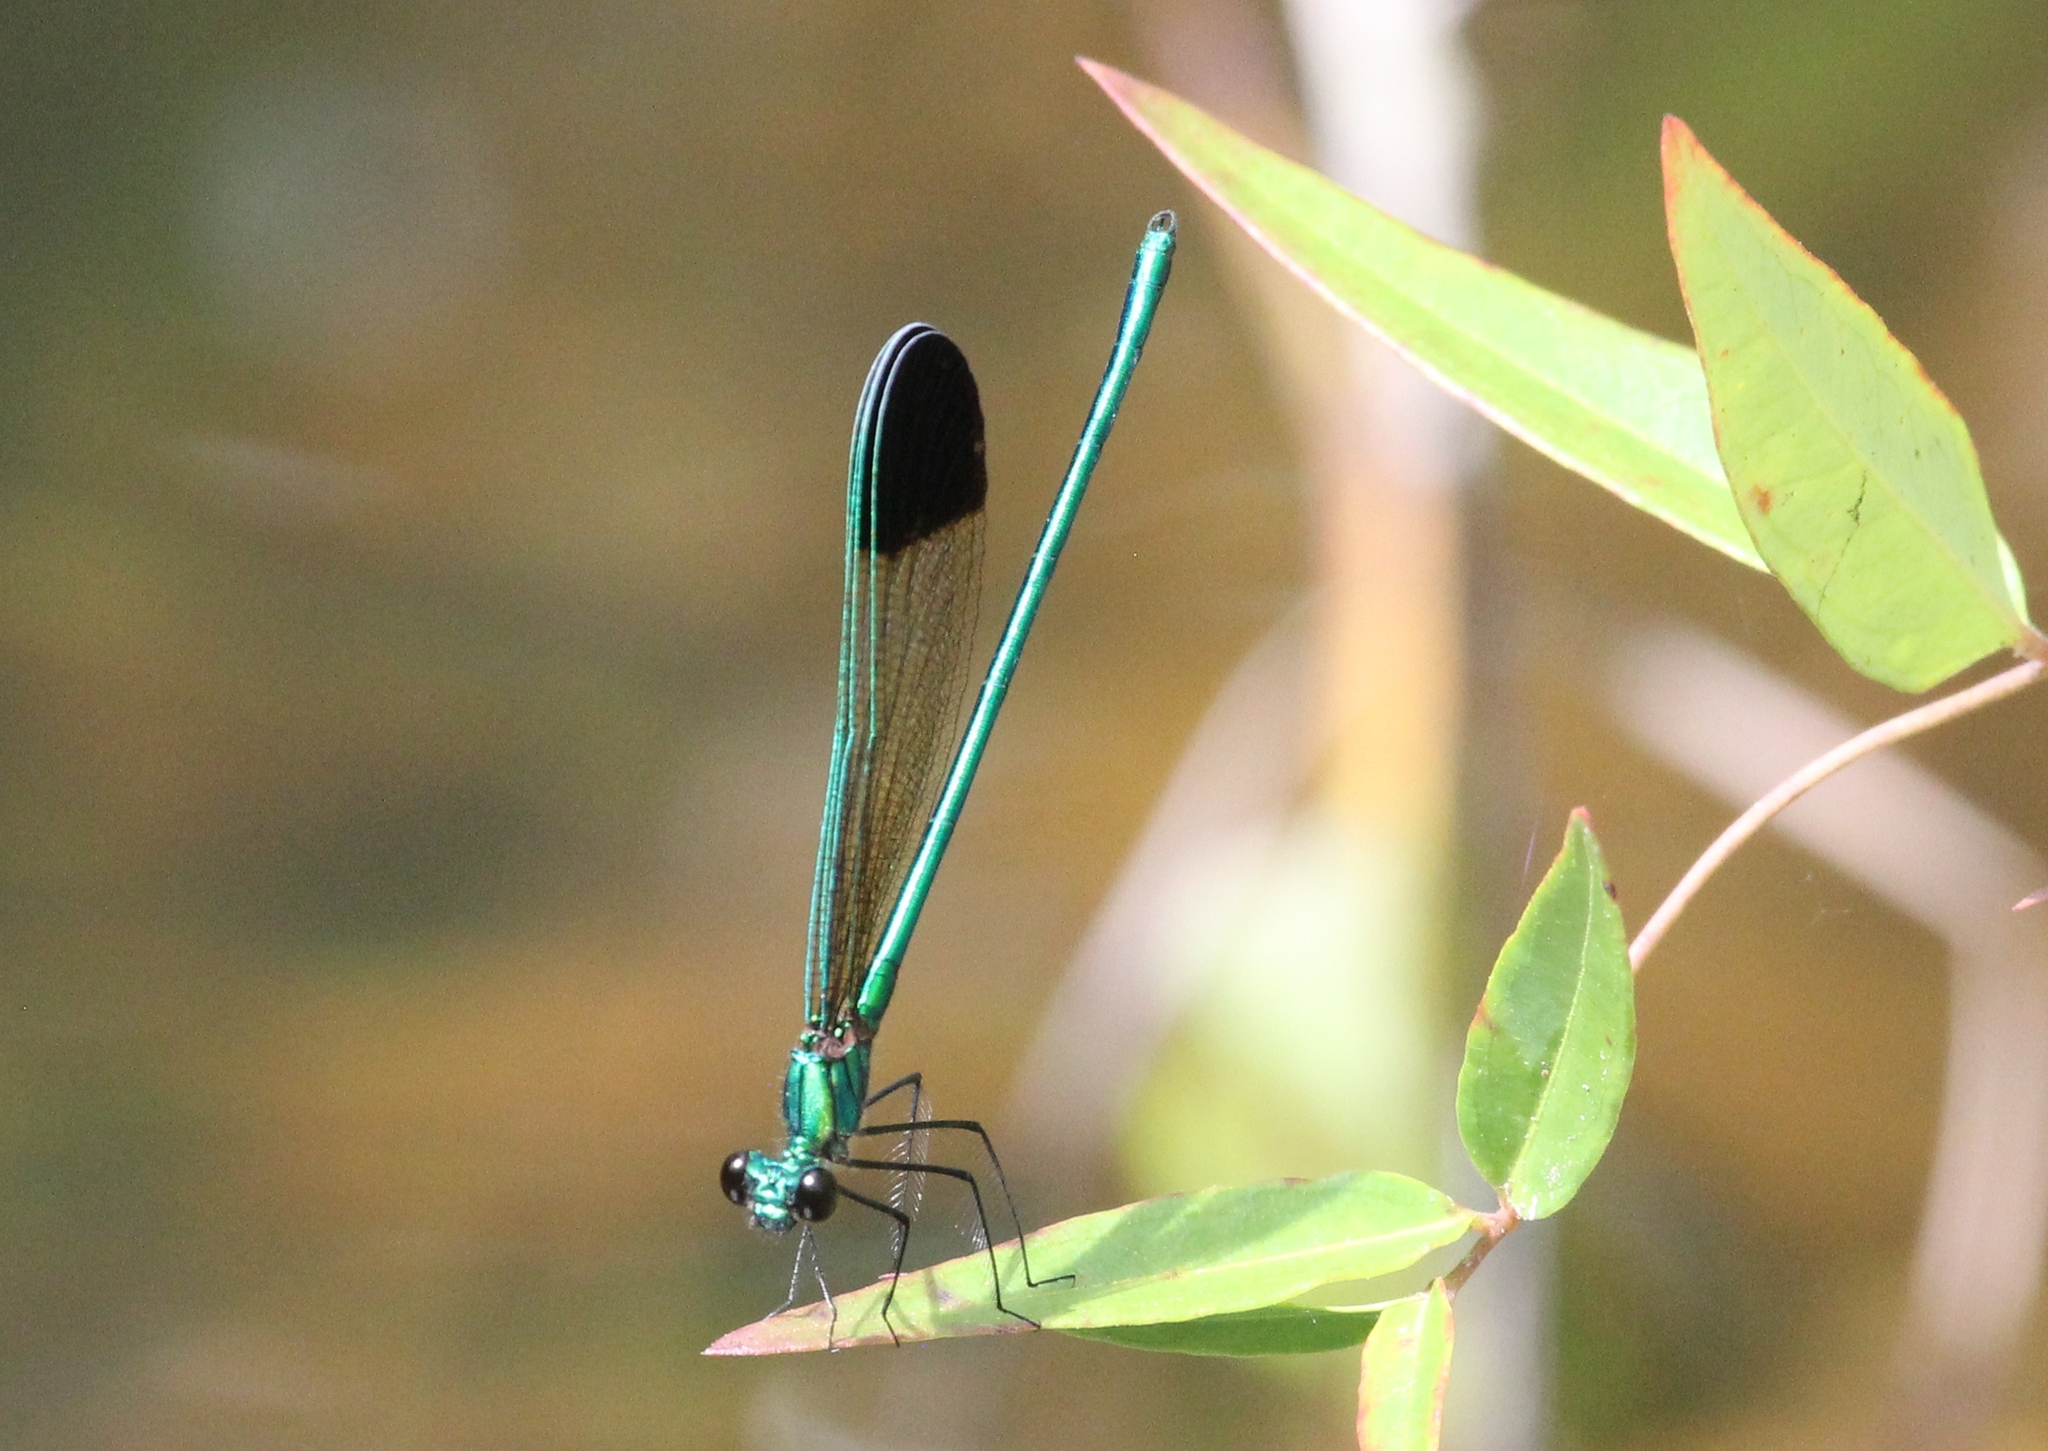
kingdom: Animalia
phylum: Arthropoda
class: Insecta
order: Odonata
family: Calopterygidae
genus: Calopteryx
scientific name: Calopteryx dimidiata
